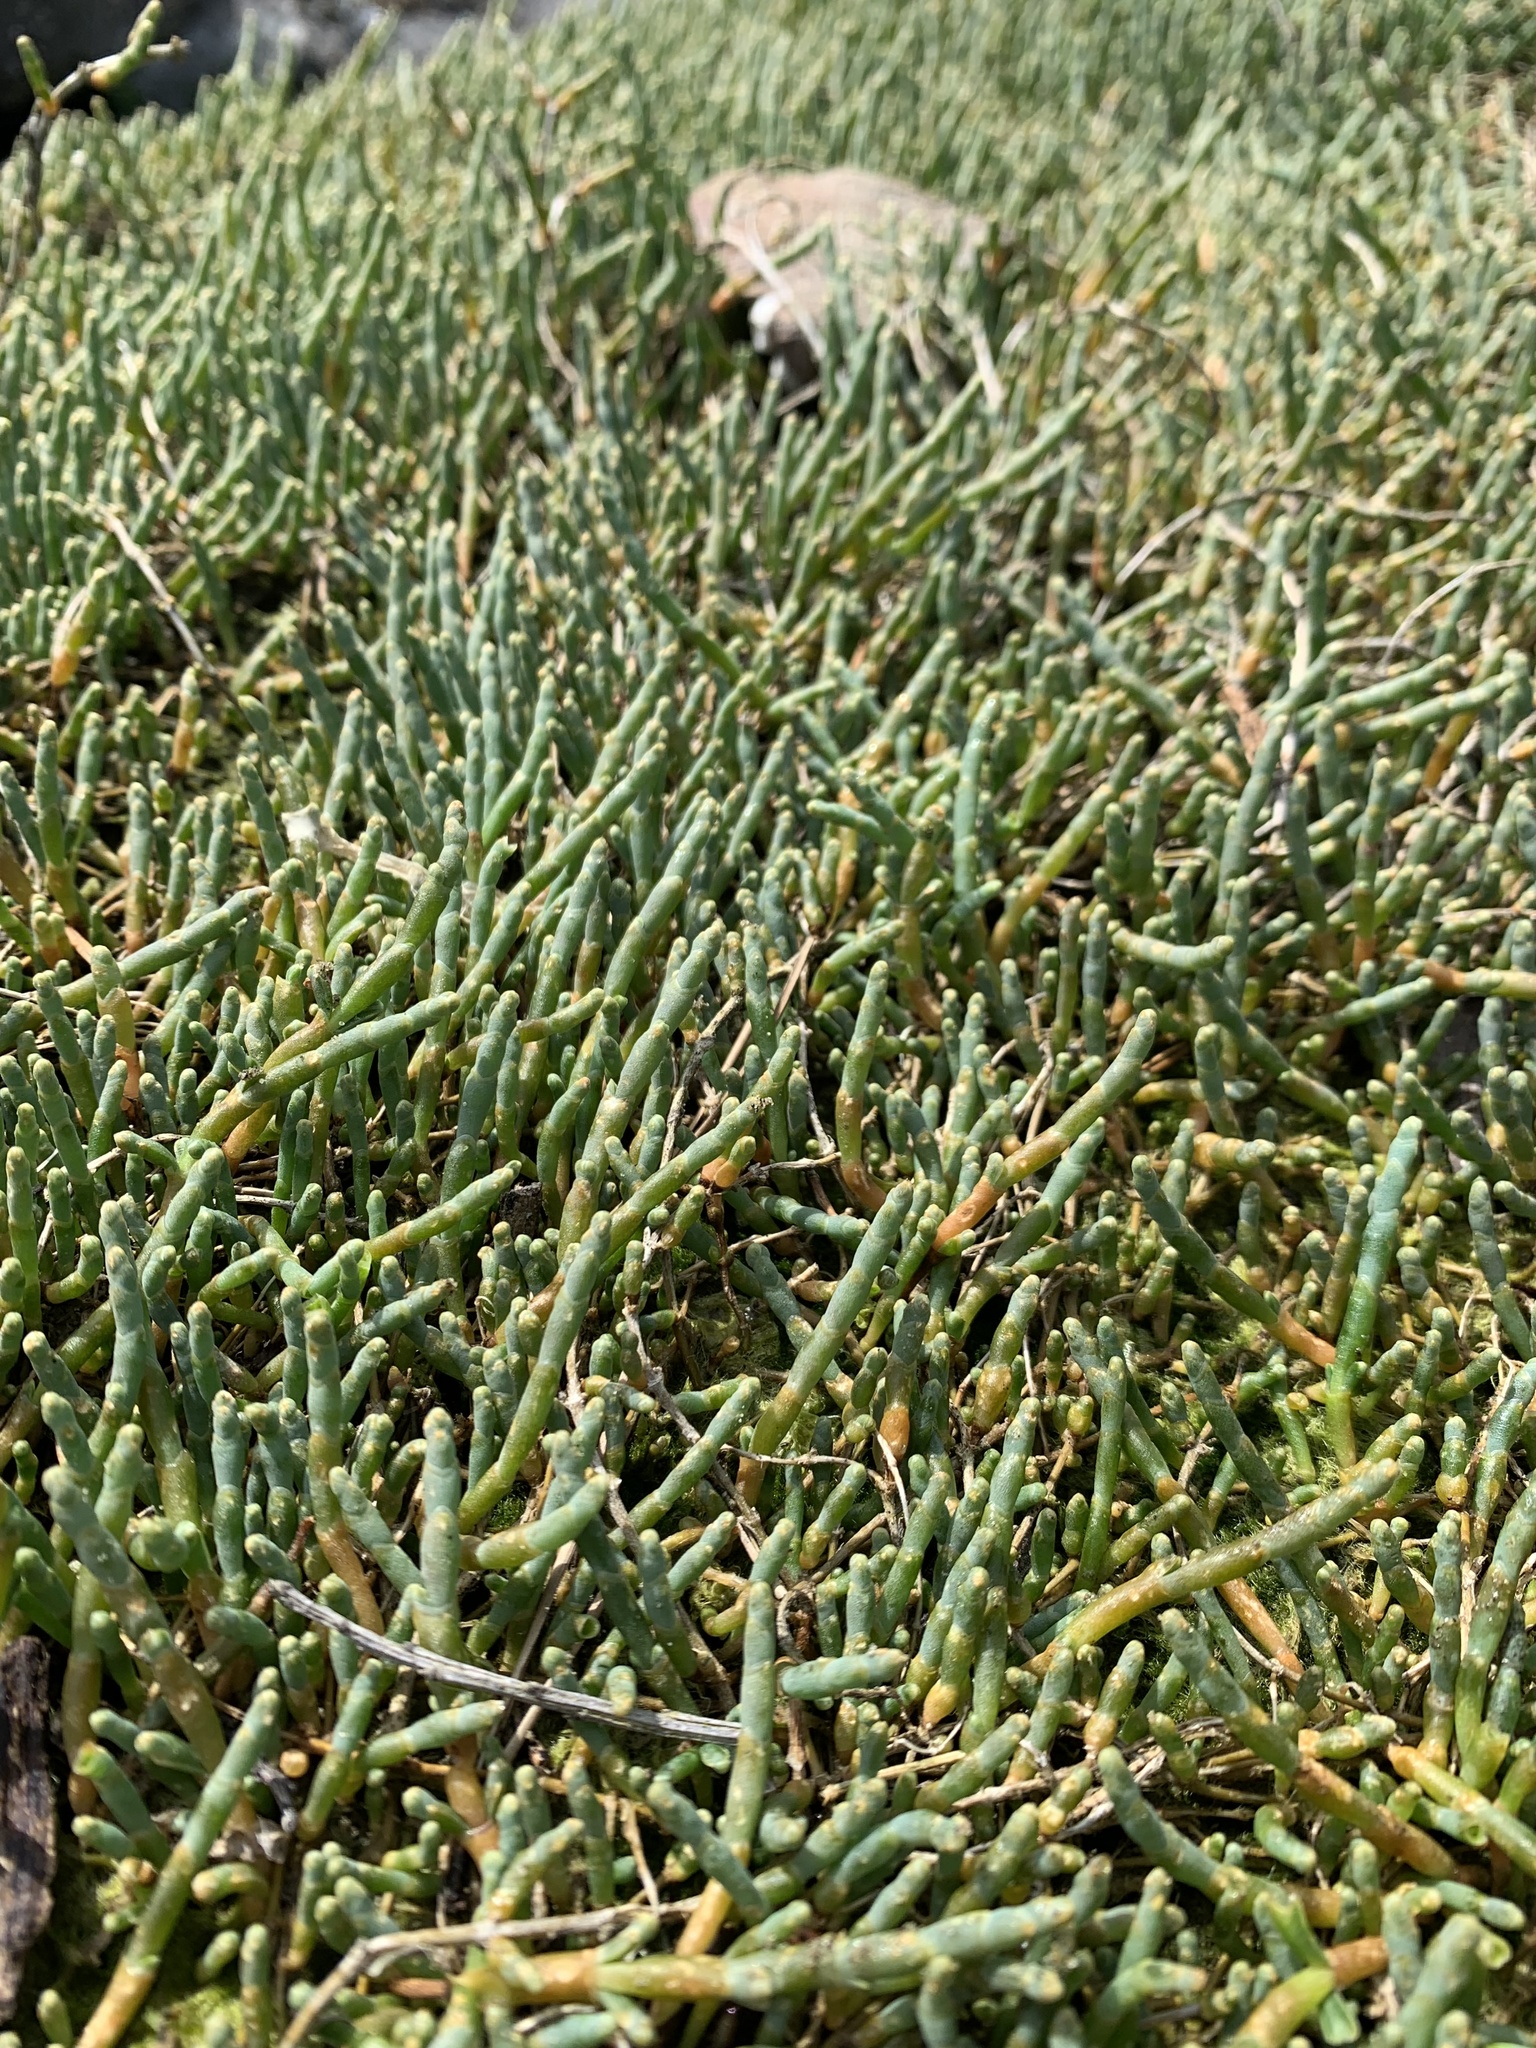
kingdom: Plantae
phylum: Tracheophyta
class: Magnoliopsida
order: Caryophyllales
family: Amaranthaceae
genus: Salicornia
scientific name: Salicornia pacifica
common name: Pacific glasswort
